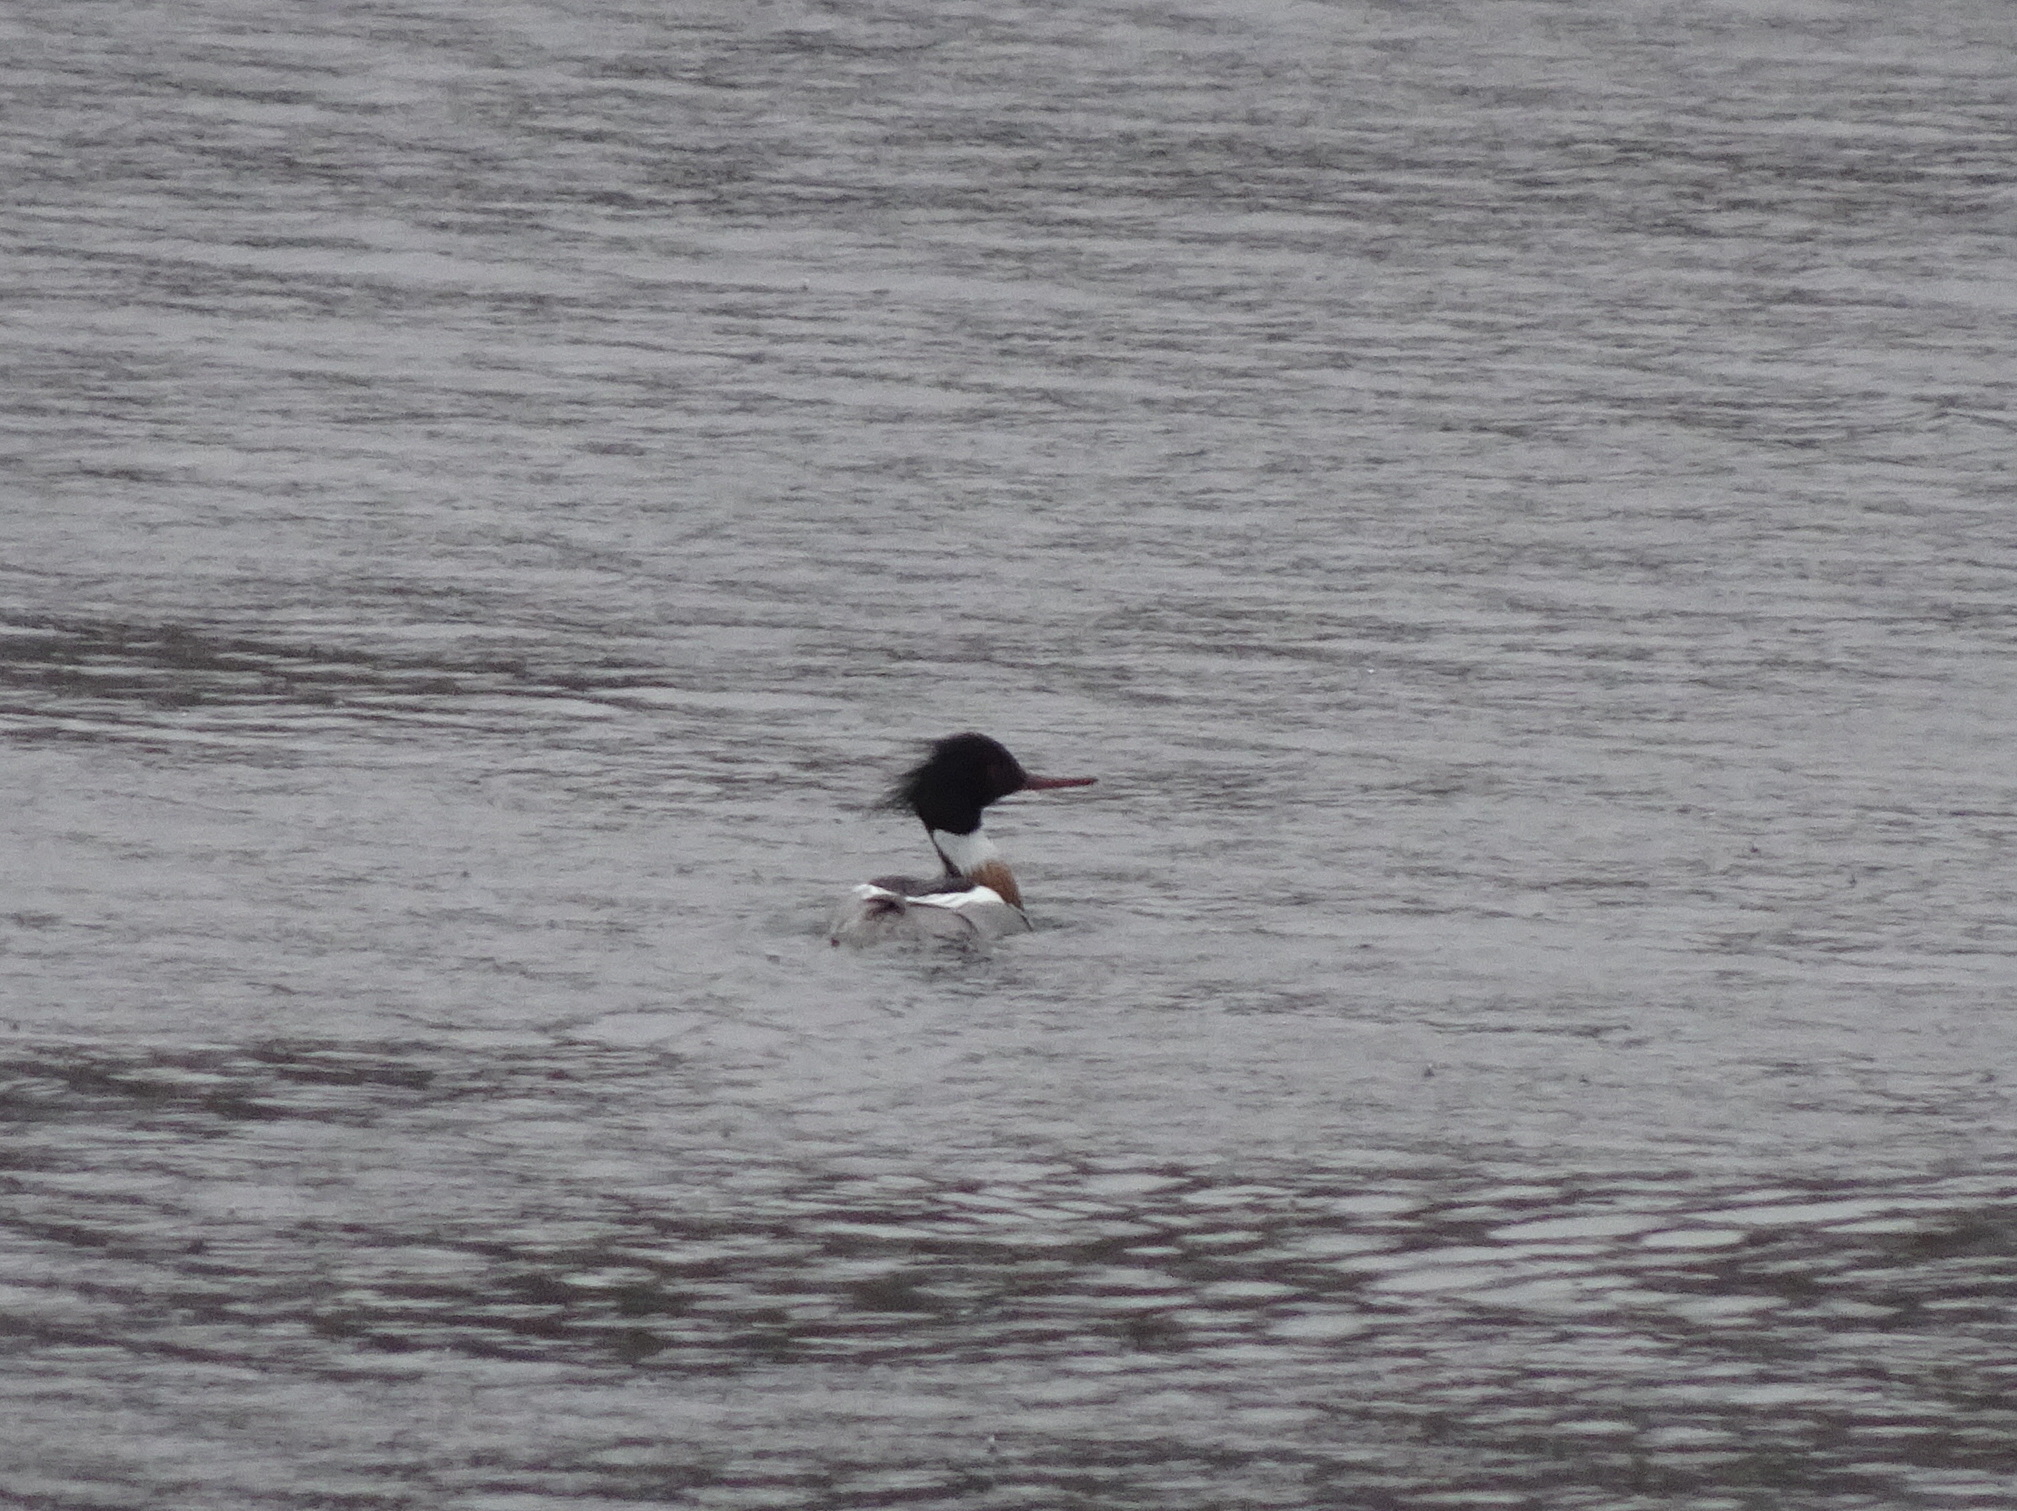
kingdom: Animalia
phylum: Chordata
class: Aves
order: Anseriformes
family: Anatidae
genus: Mergus
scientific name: Mergus serrator
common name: Red-breasted merganser
